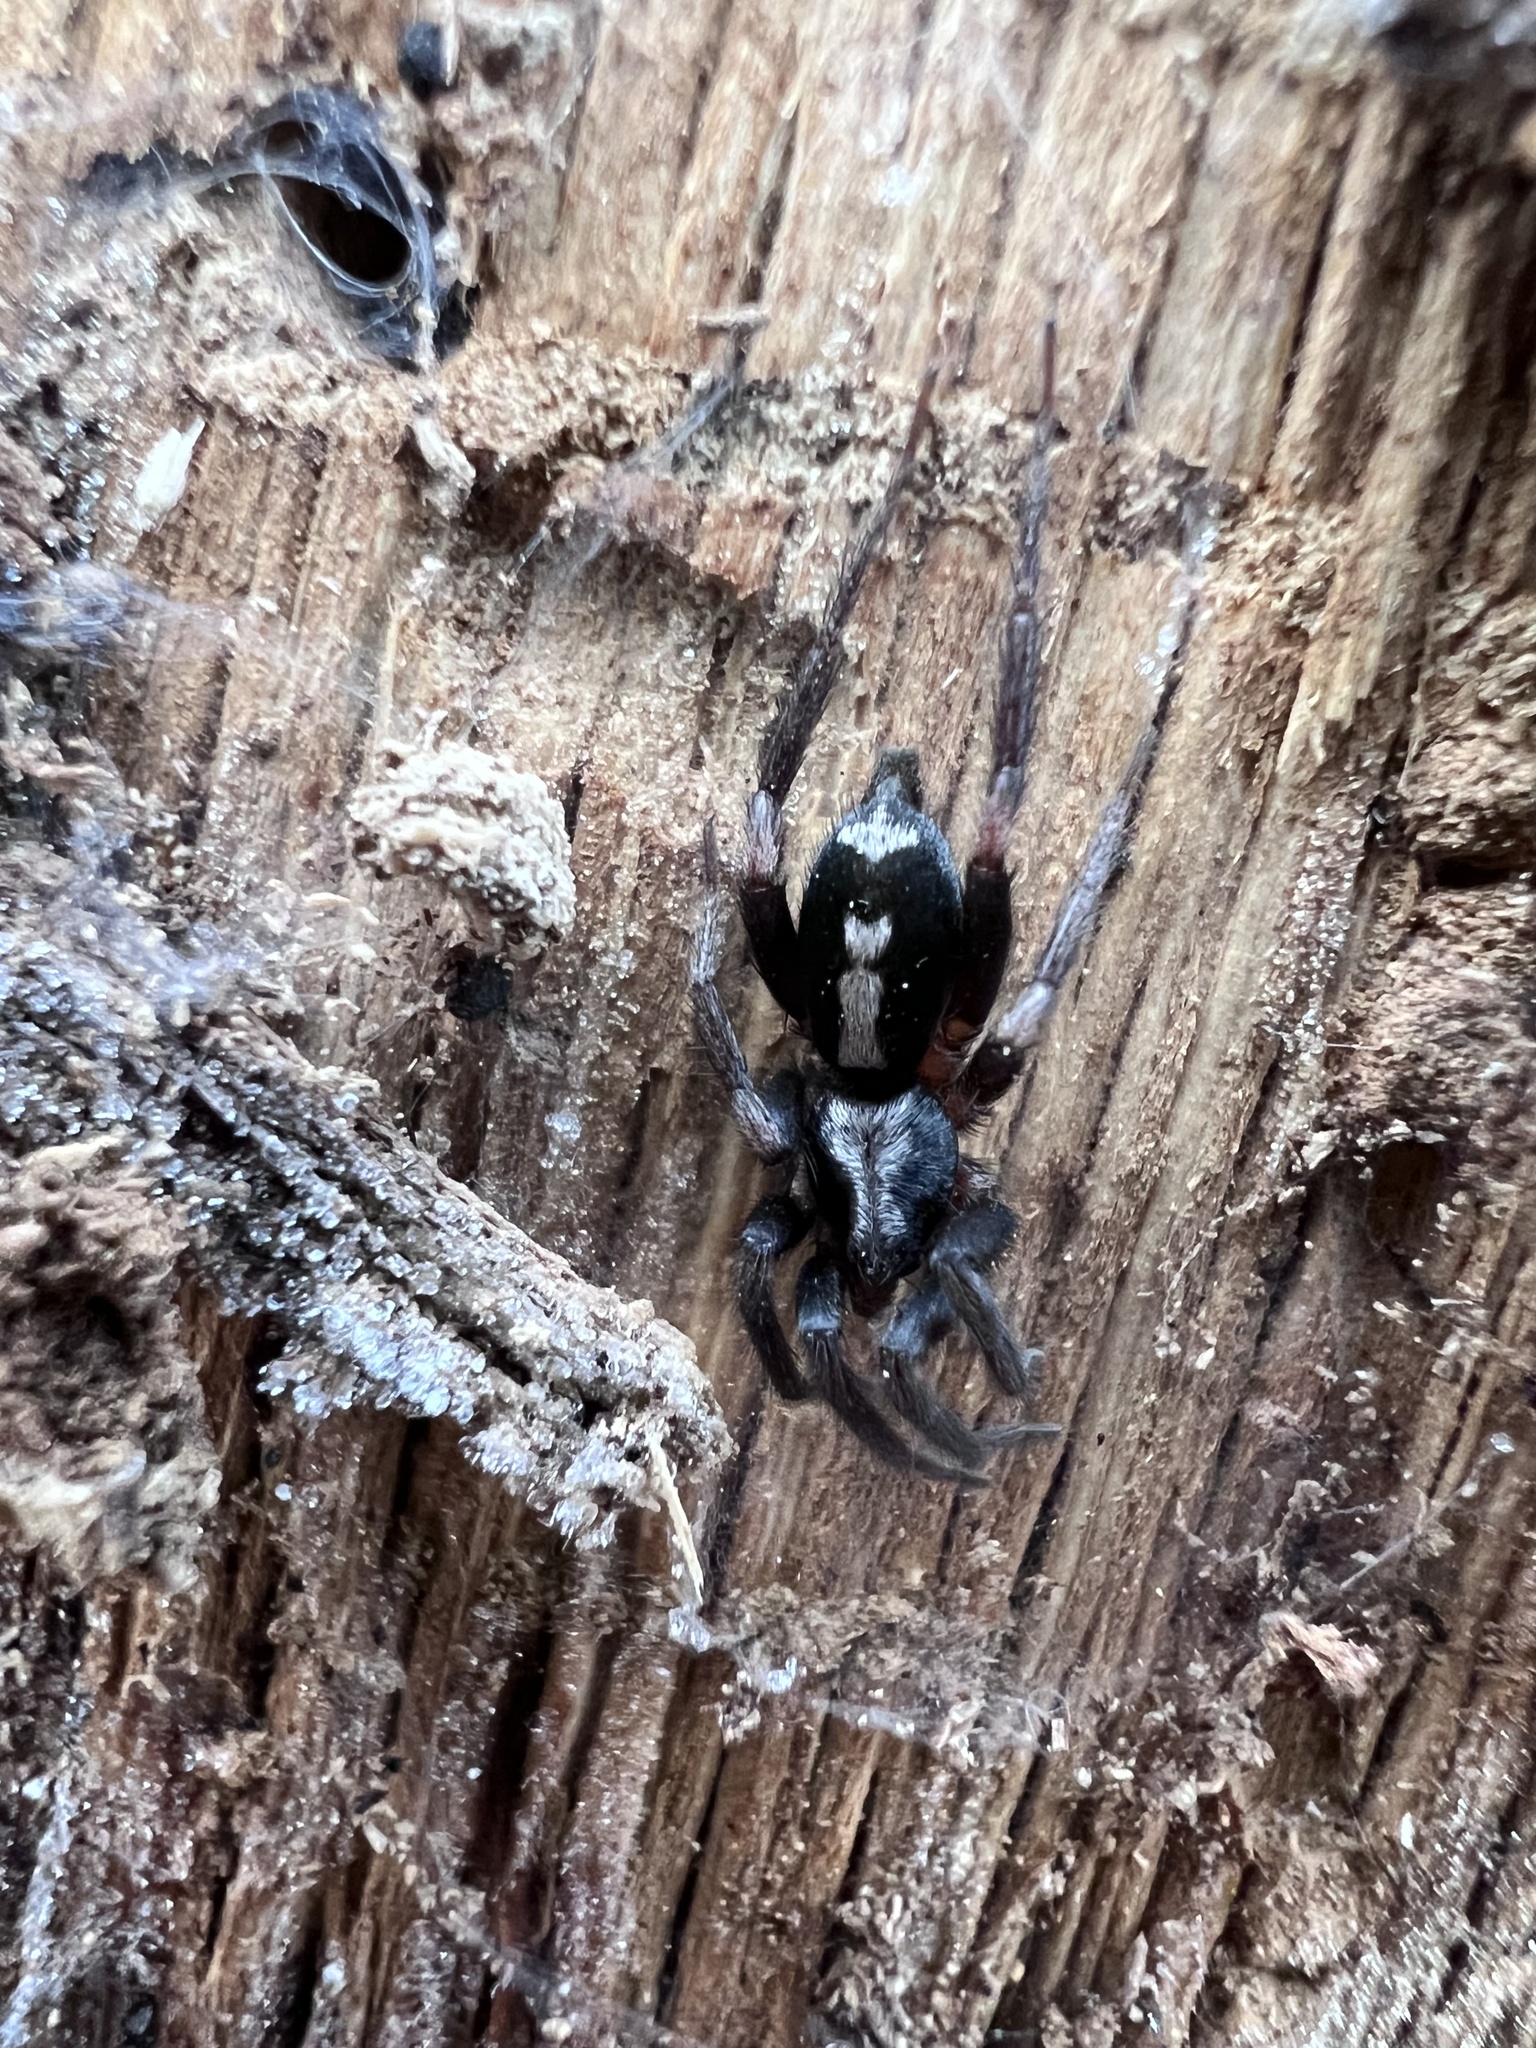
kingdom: Animalia
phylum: Arthropoda
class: Arachnida
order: Araneae
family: Gnaphosidae
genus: Herpyllus
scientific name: Herpyllus ecclesiasticus
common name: Eastern parson spider
